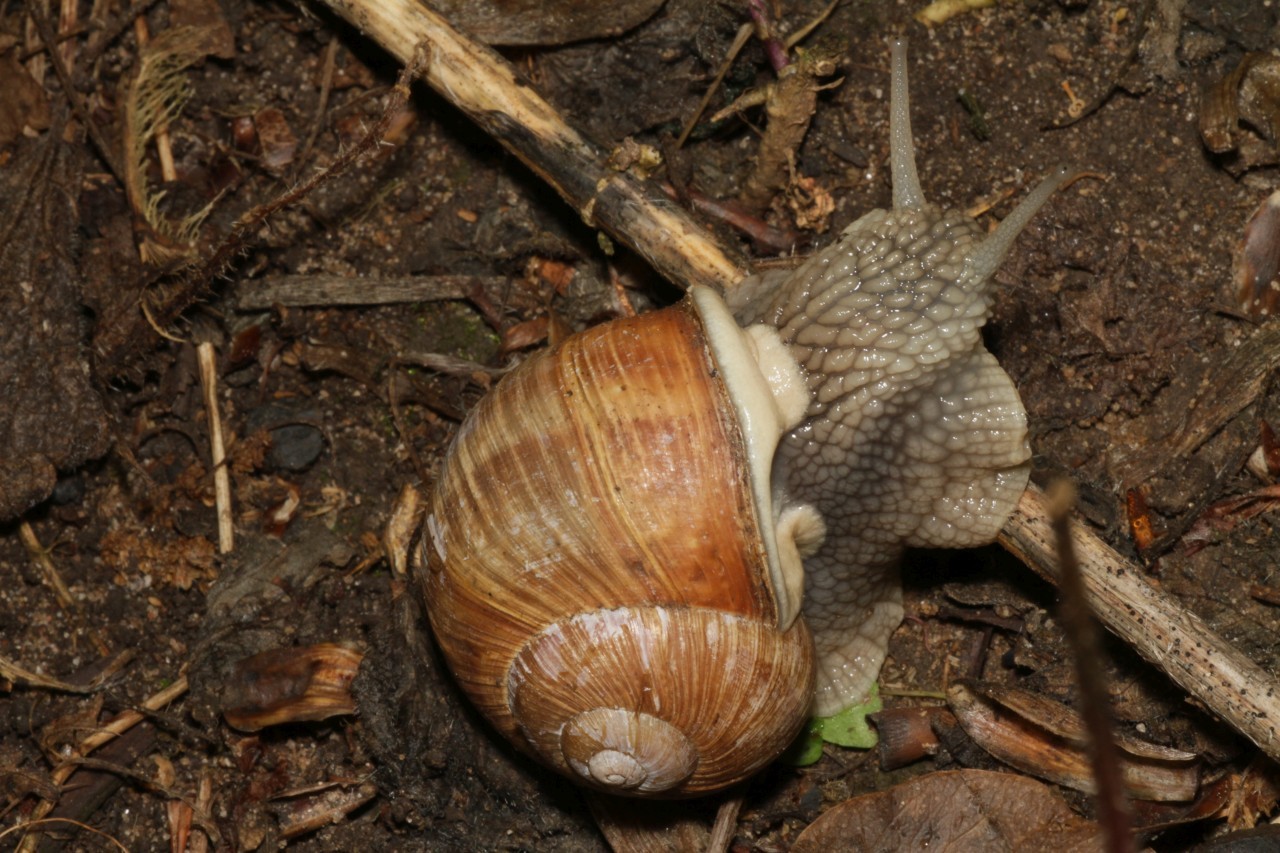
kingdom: Animalia
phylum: Mollusca
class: Gastropoda
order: Stylommatophora
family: Helicidae
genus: Helix
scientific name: Helix pomatia
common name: Roman snail
